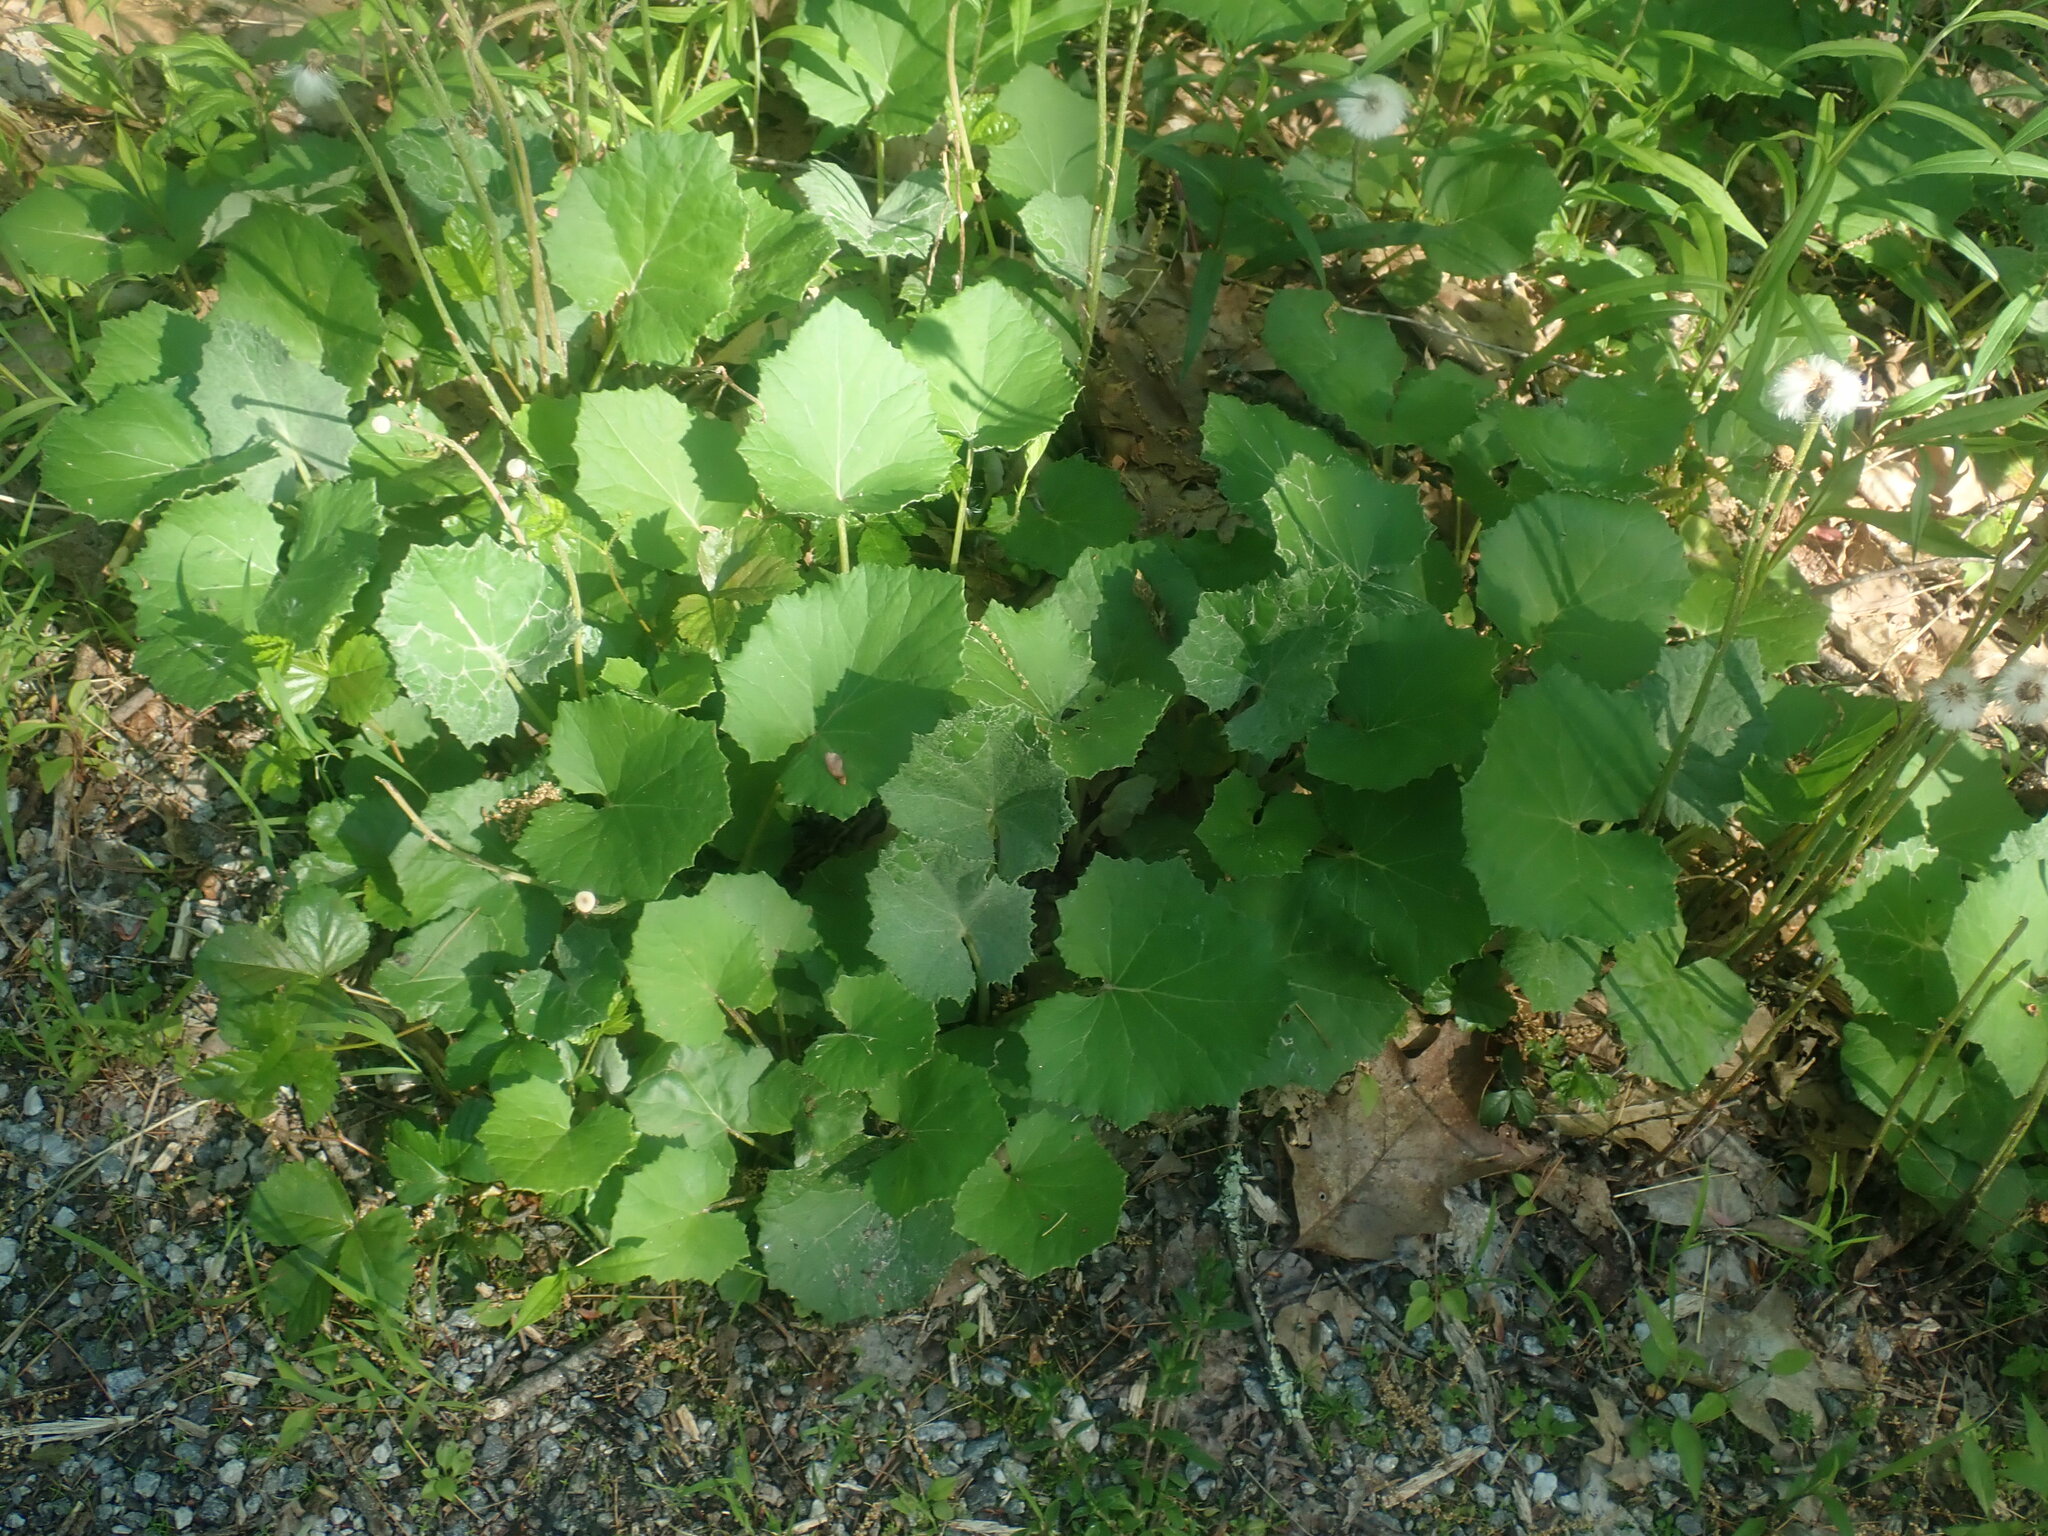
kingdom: Plantae
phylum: Tracheophyta
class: Magnoliopsida
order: Asterales
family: Asteraceae
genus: Tussilago
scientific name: Tussilago farfara
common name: Coltsfoot
